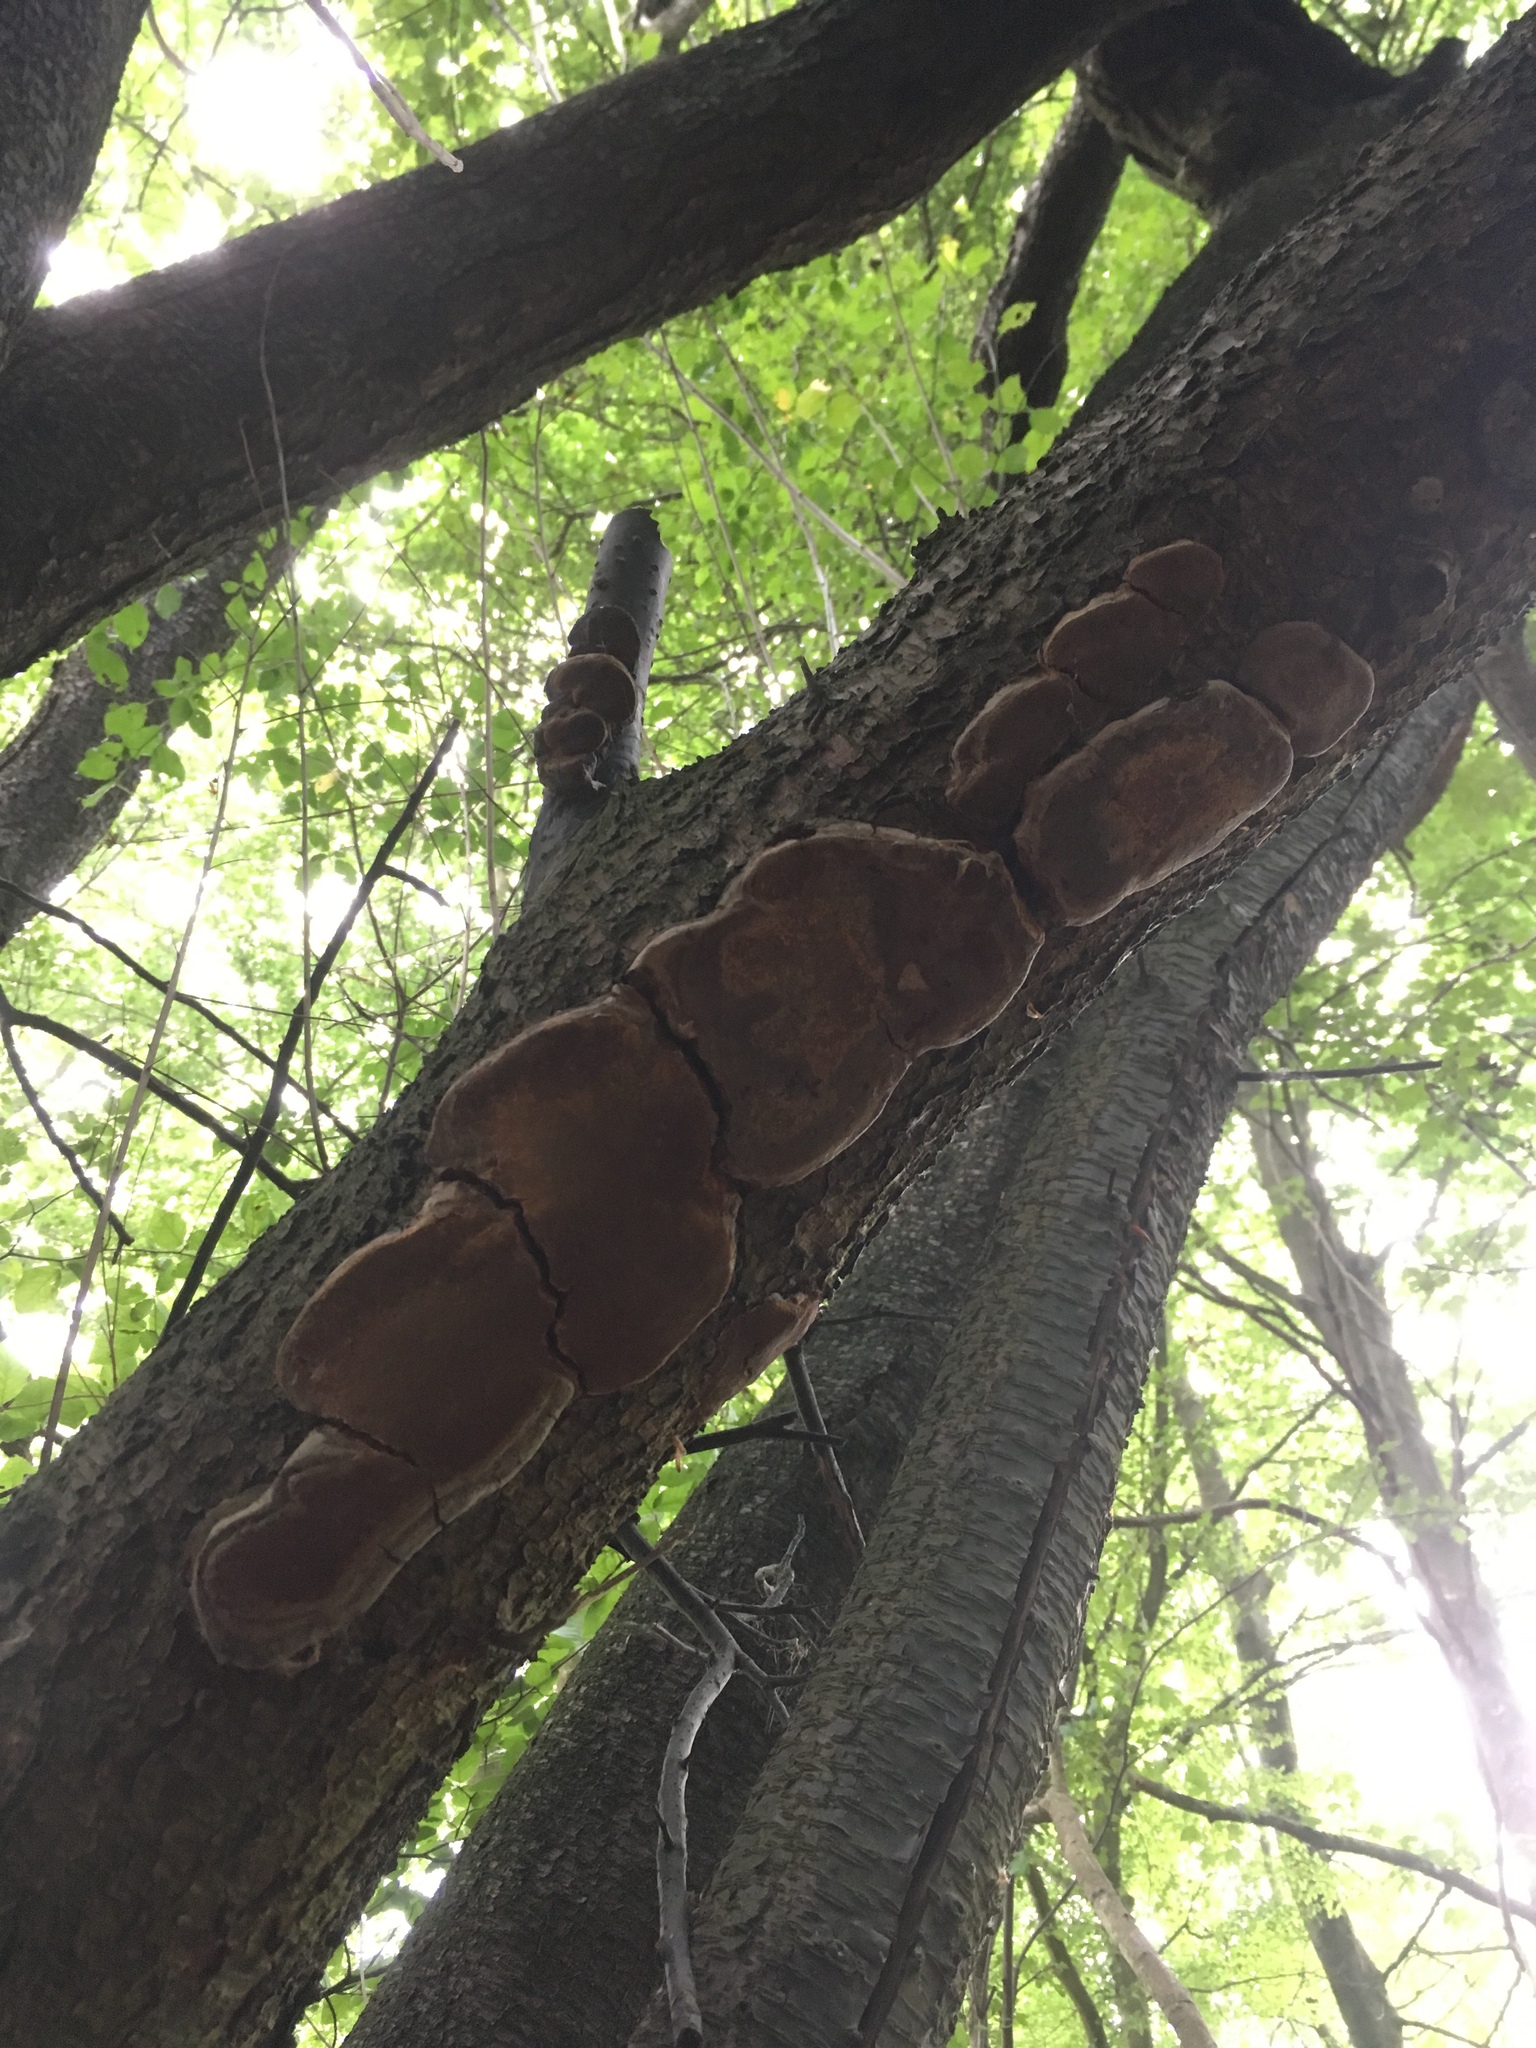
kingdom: Fungi
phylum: Basidiomycota
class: Agaricomycetes
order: Hymenochaetales
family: Hymenochaetaceae
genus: Phellinus
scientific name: Phellinus pomaceus
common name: Cushion bracket
